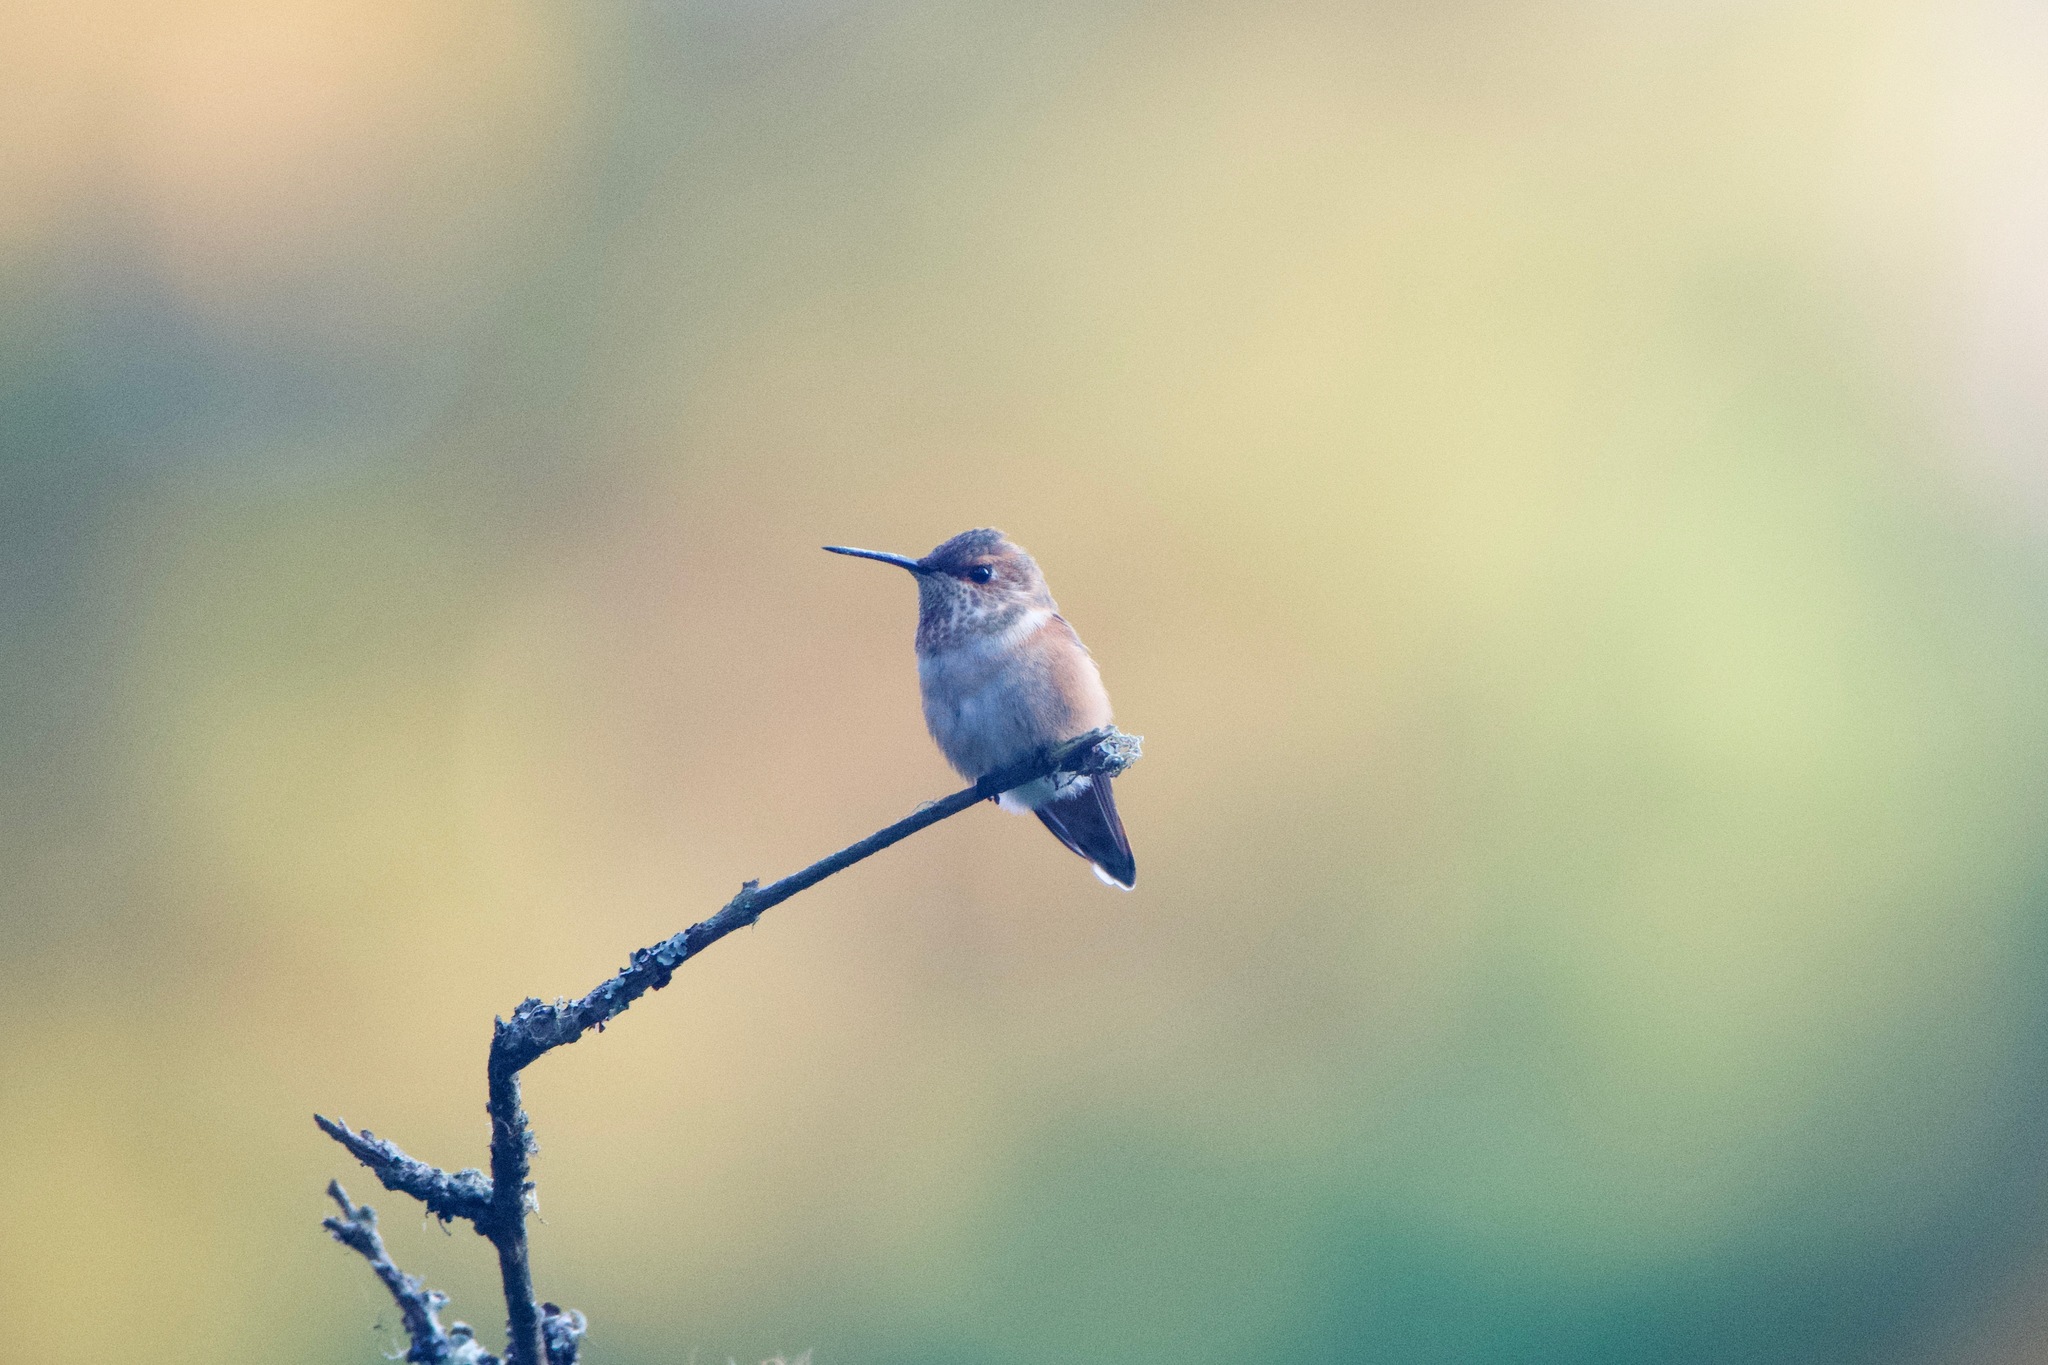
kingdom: Animalia
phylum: Chordata
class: Aves
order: Apodiformes
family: Trochilidae
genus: Selasphorus
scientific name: Selasphorus sasin
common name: Allen's hummingbird
